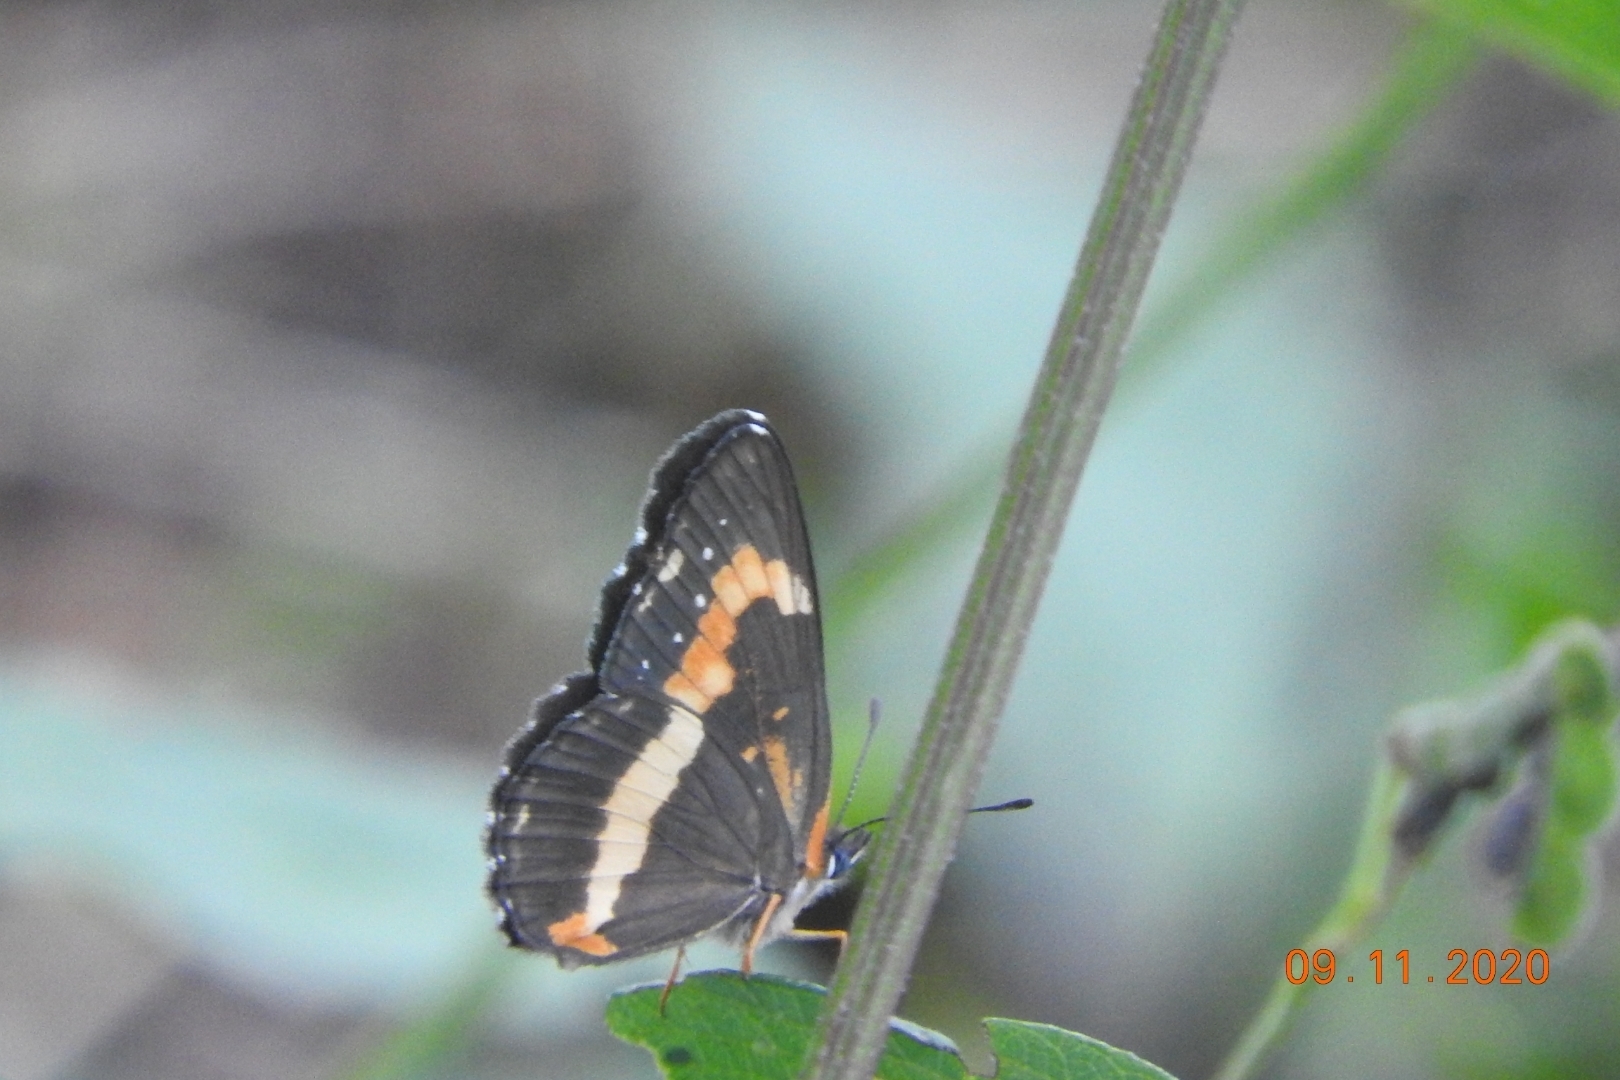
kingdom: Animalia
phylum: Arthropoda
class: Insecta
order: Lepidoptera
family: Nymphalidae
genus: Chlosyne
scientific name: Chlosyne lacinia
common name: Bordered patch
